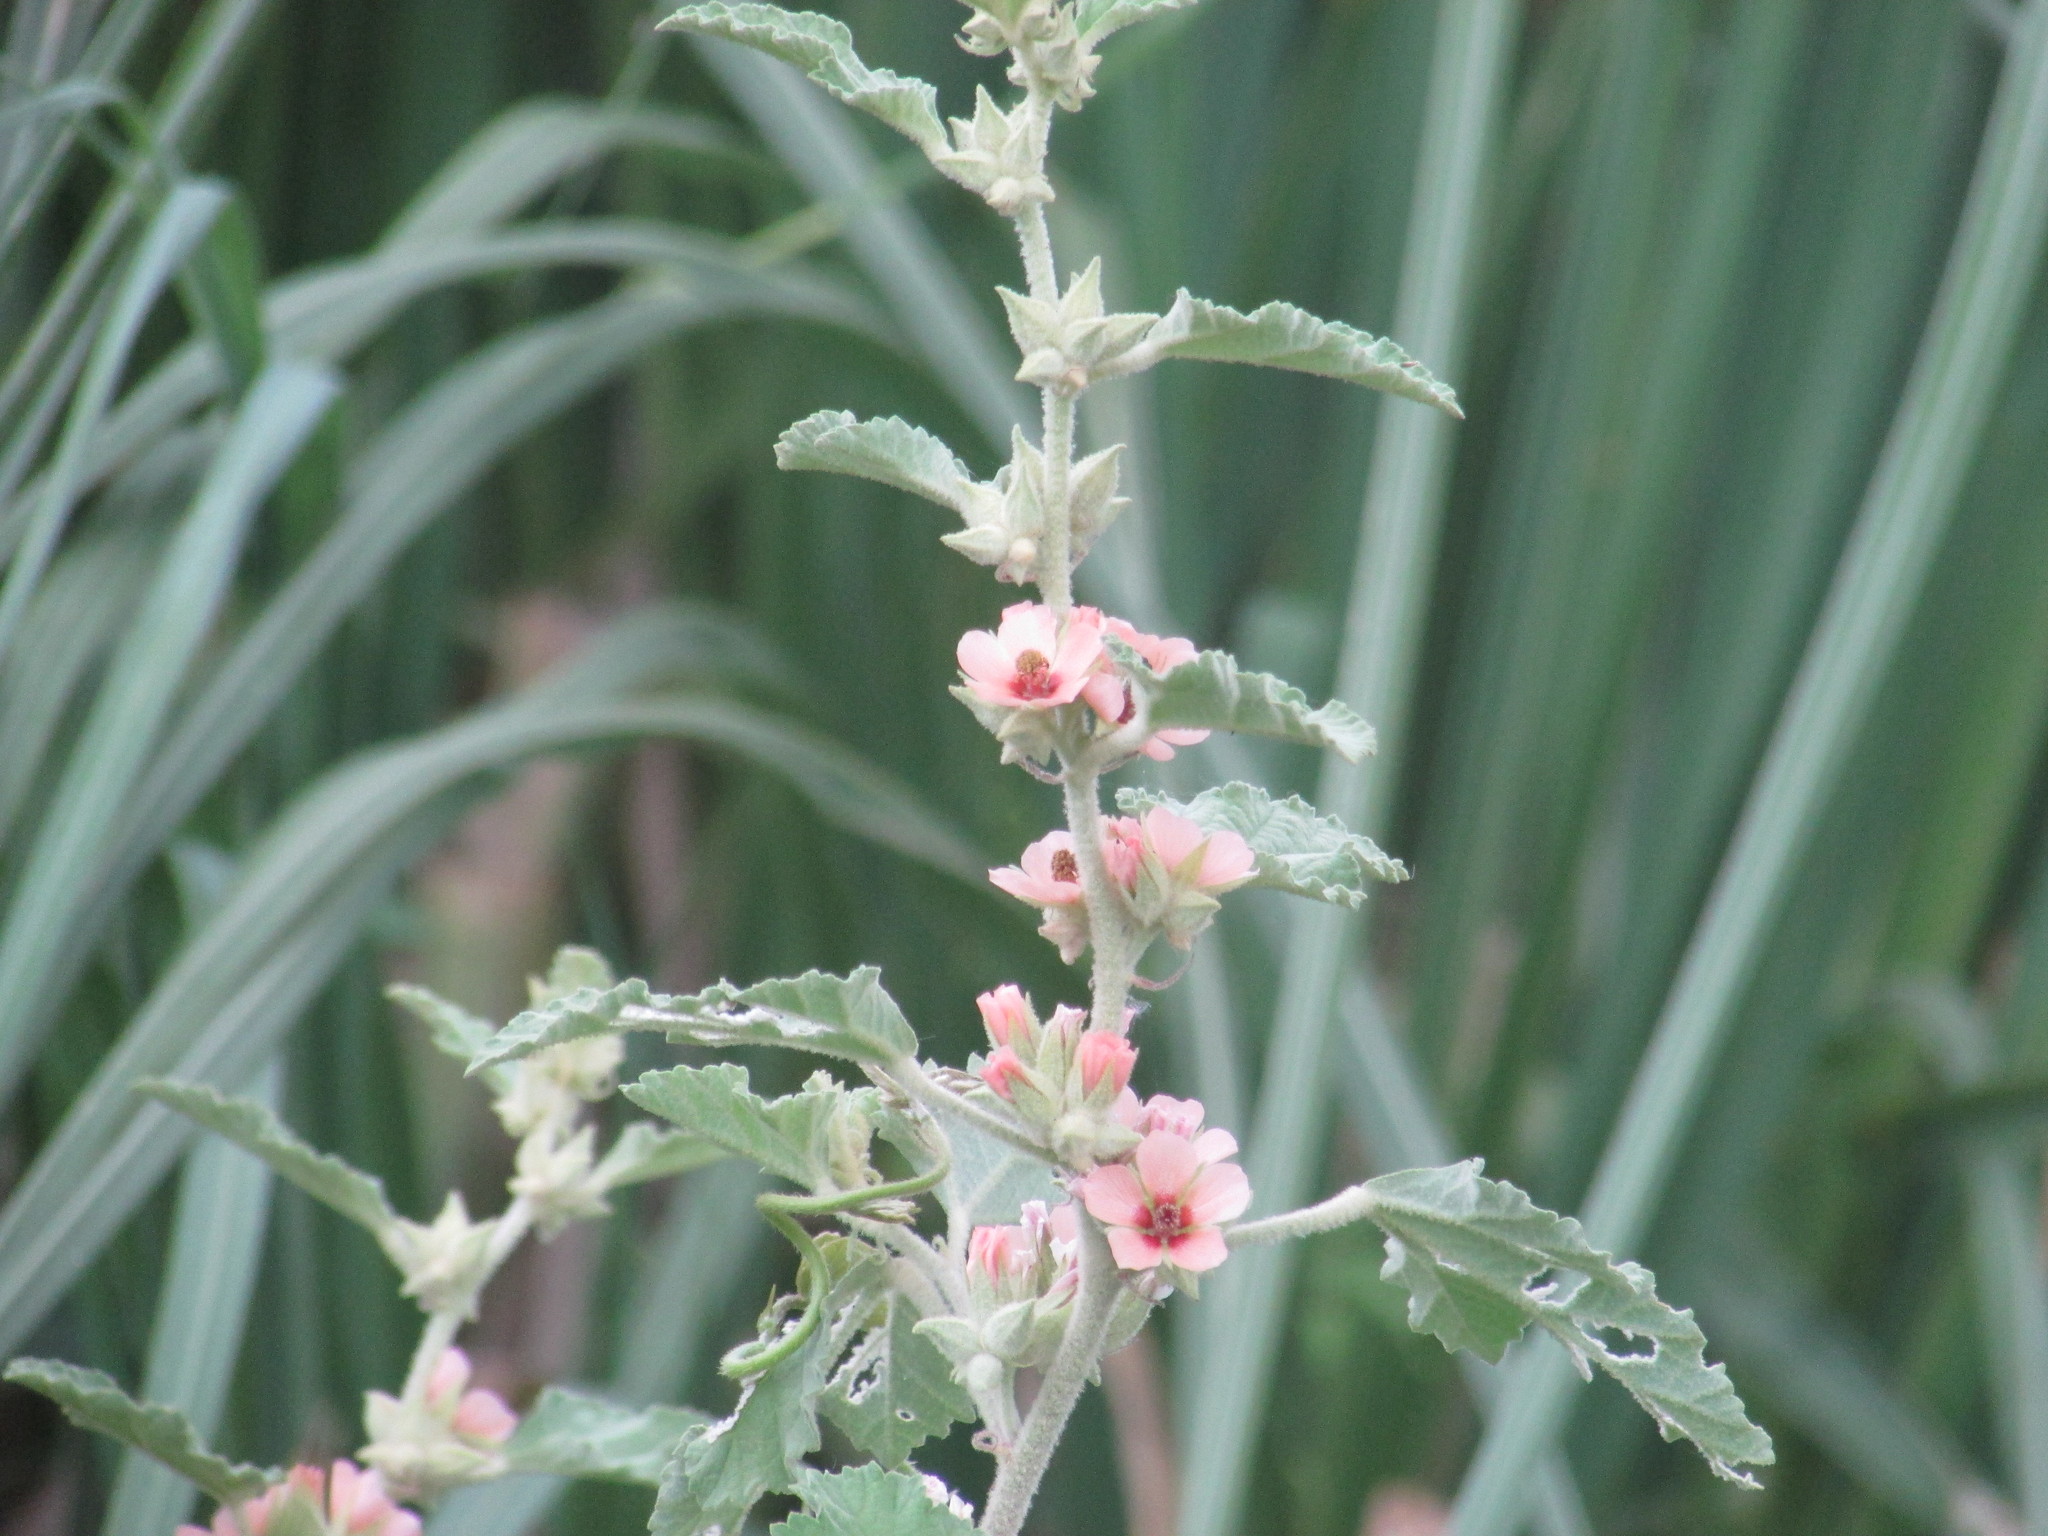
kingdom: Plantae
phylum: Tracheophyta
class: Magnoliopsida
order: Malvales
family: Malvaceae
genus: Sphaeralcea
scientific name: Sphaeralcea bonariensis
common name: Latin globemallow
